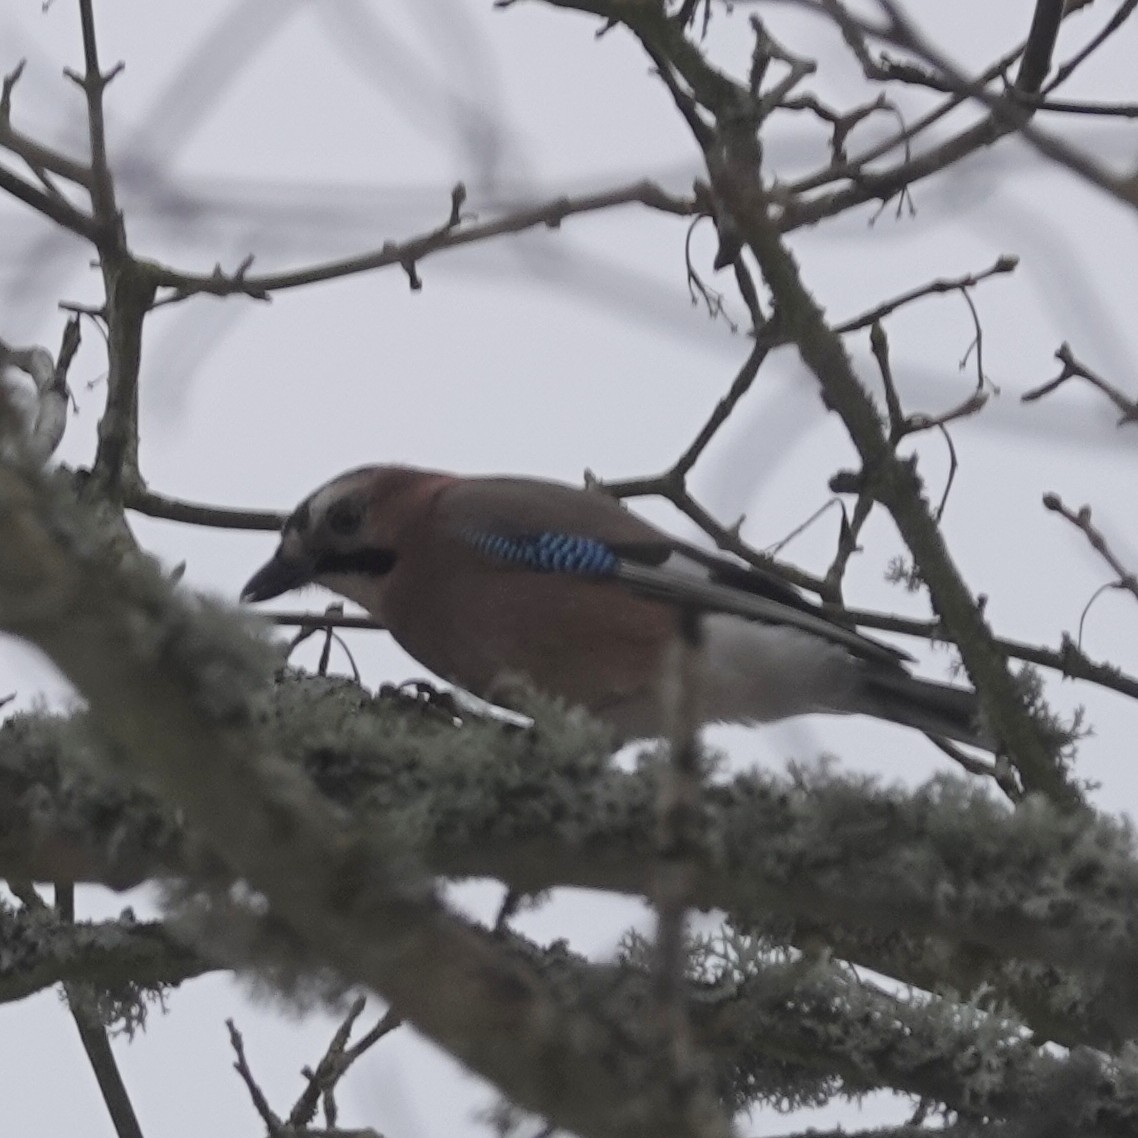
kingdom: Animalia
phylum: Chordata
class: Aves
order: Passeriformes
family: Corvidae
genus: Garrulus
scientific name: Garrulus glandarius
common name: Eurasian jay
